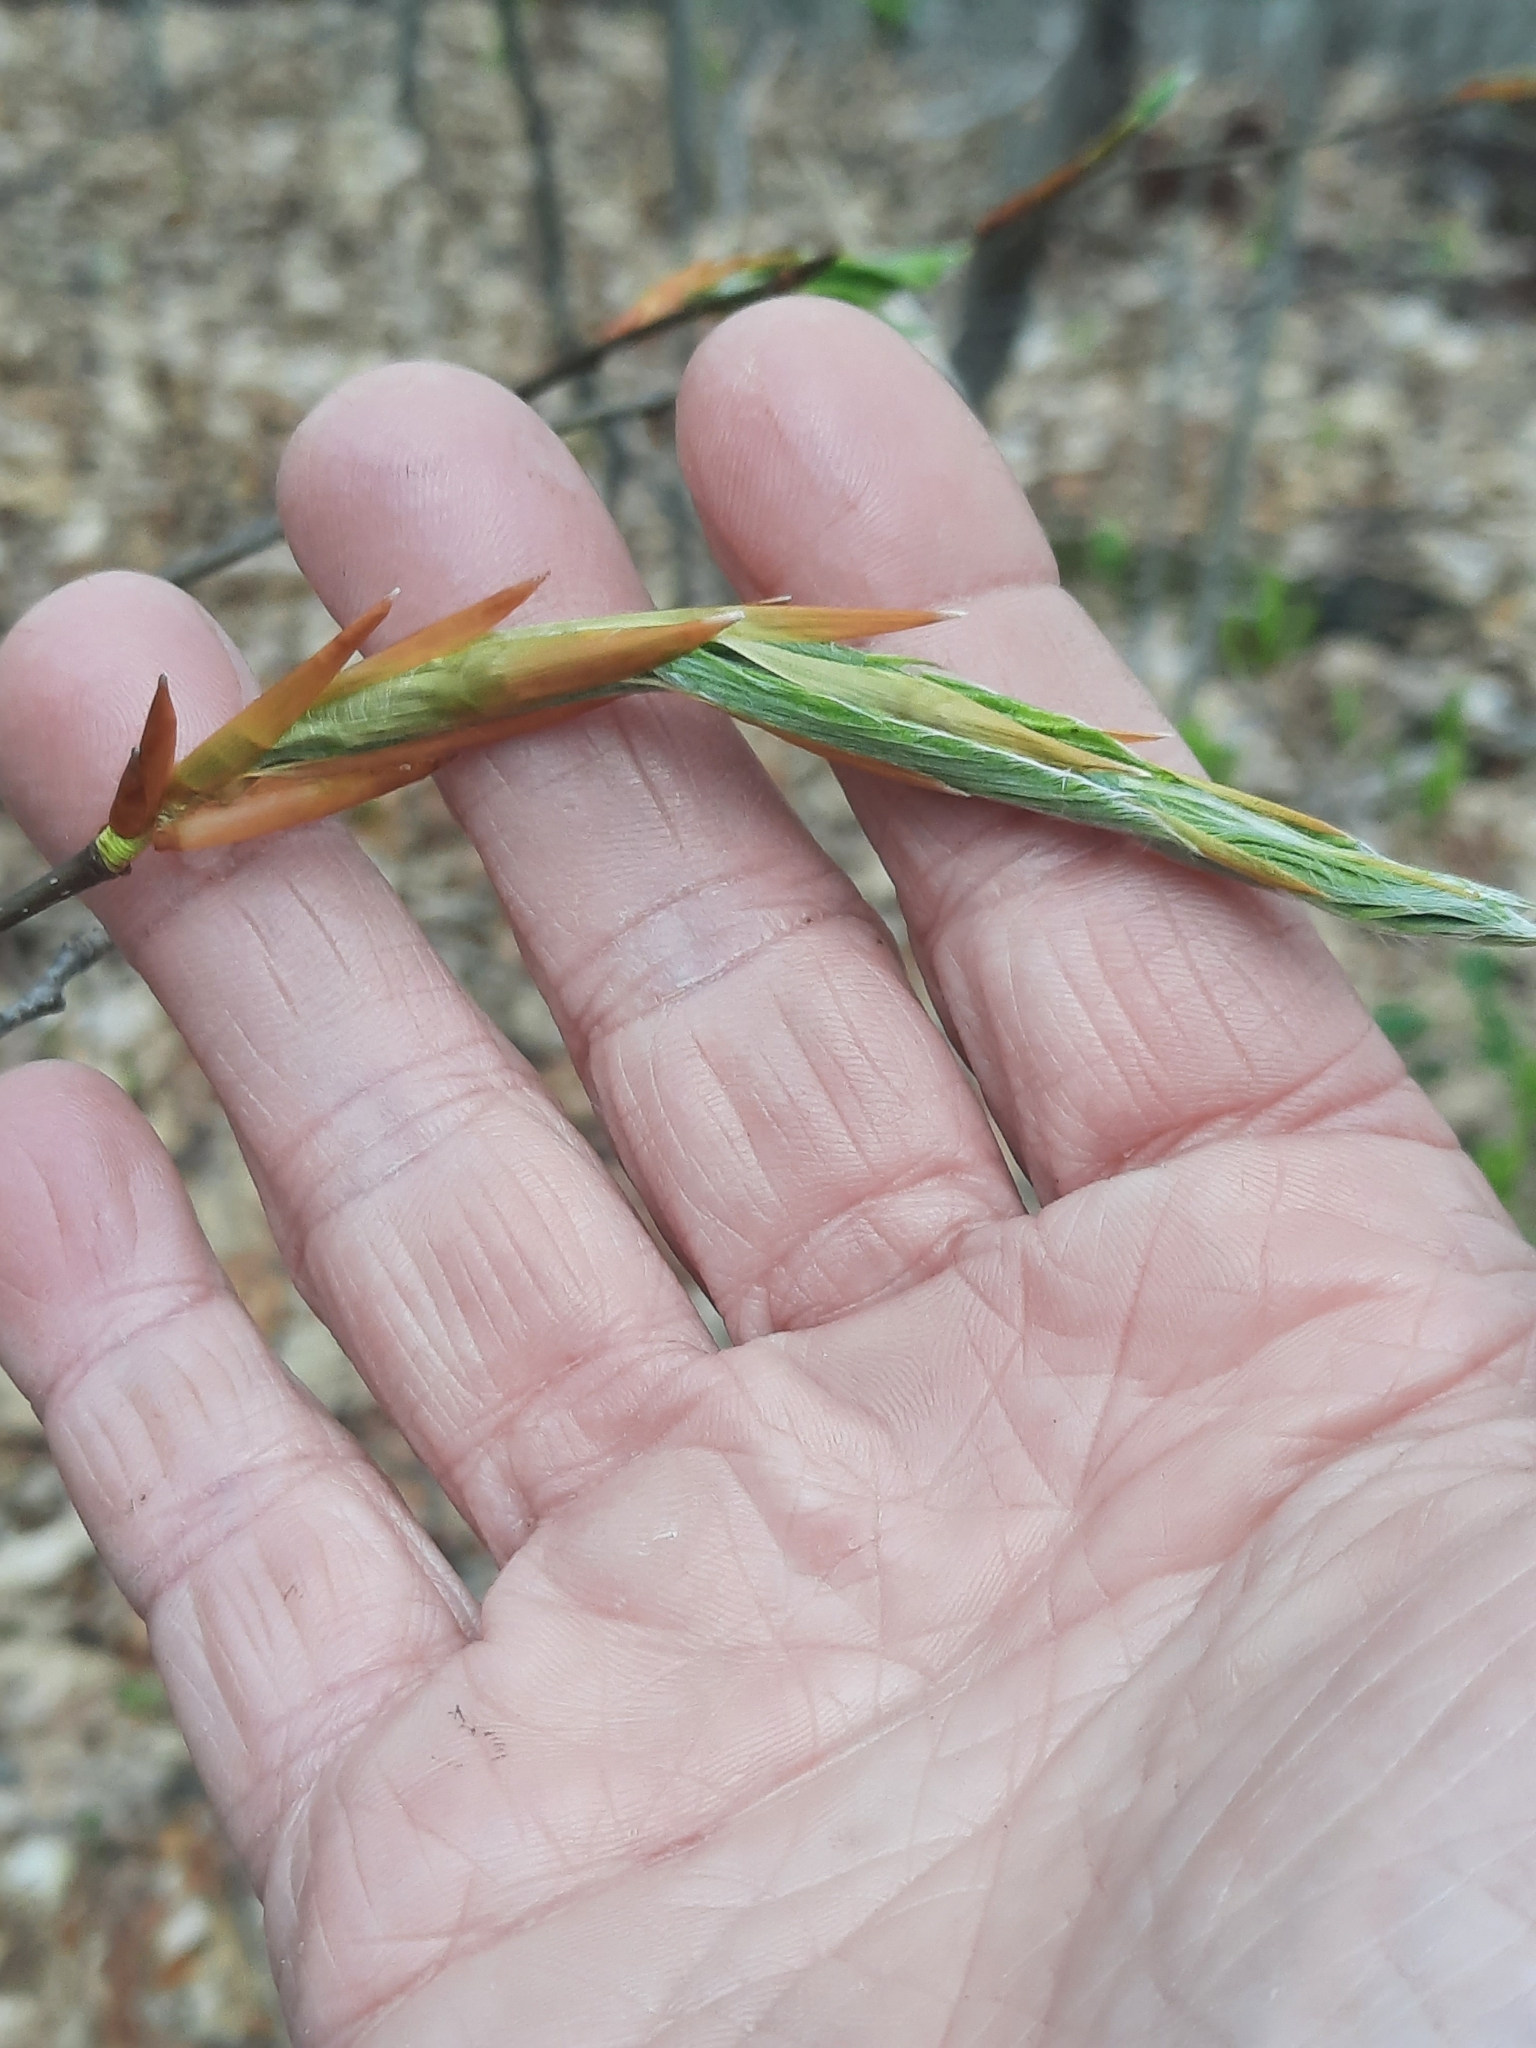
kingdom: Plantae
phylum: Tracheophyta
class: Magnoliopsida
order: Fagales
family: Fagaceae
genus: Fagus
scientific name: Fagus grandifolia
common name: American beech
